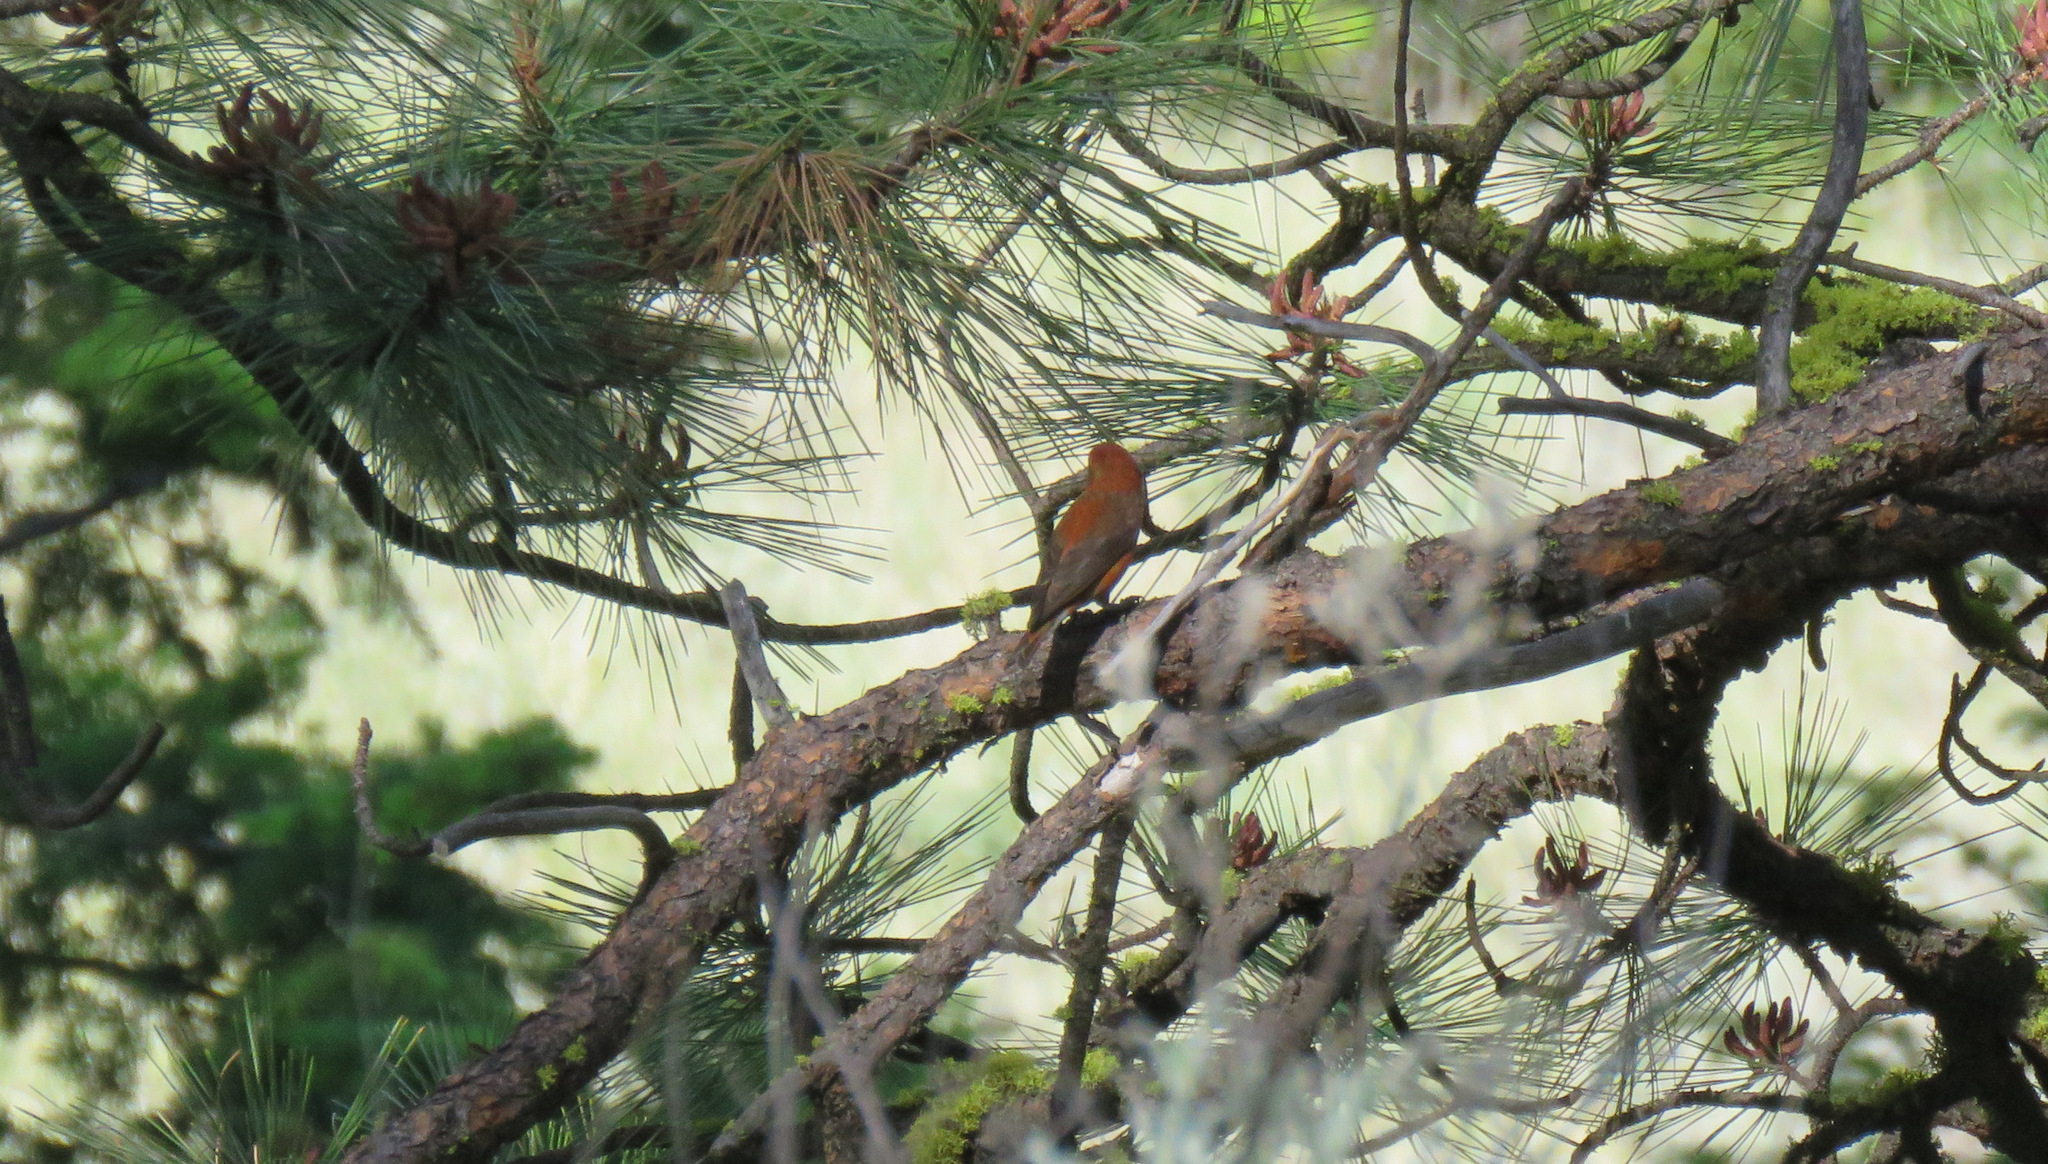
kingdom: Animalia
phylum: Chordata
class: Aves
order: Passeriformes
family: Fringillidae
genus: Loxia
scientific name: Loxia curvirostra
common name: Red crossbill
